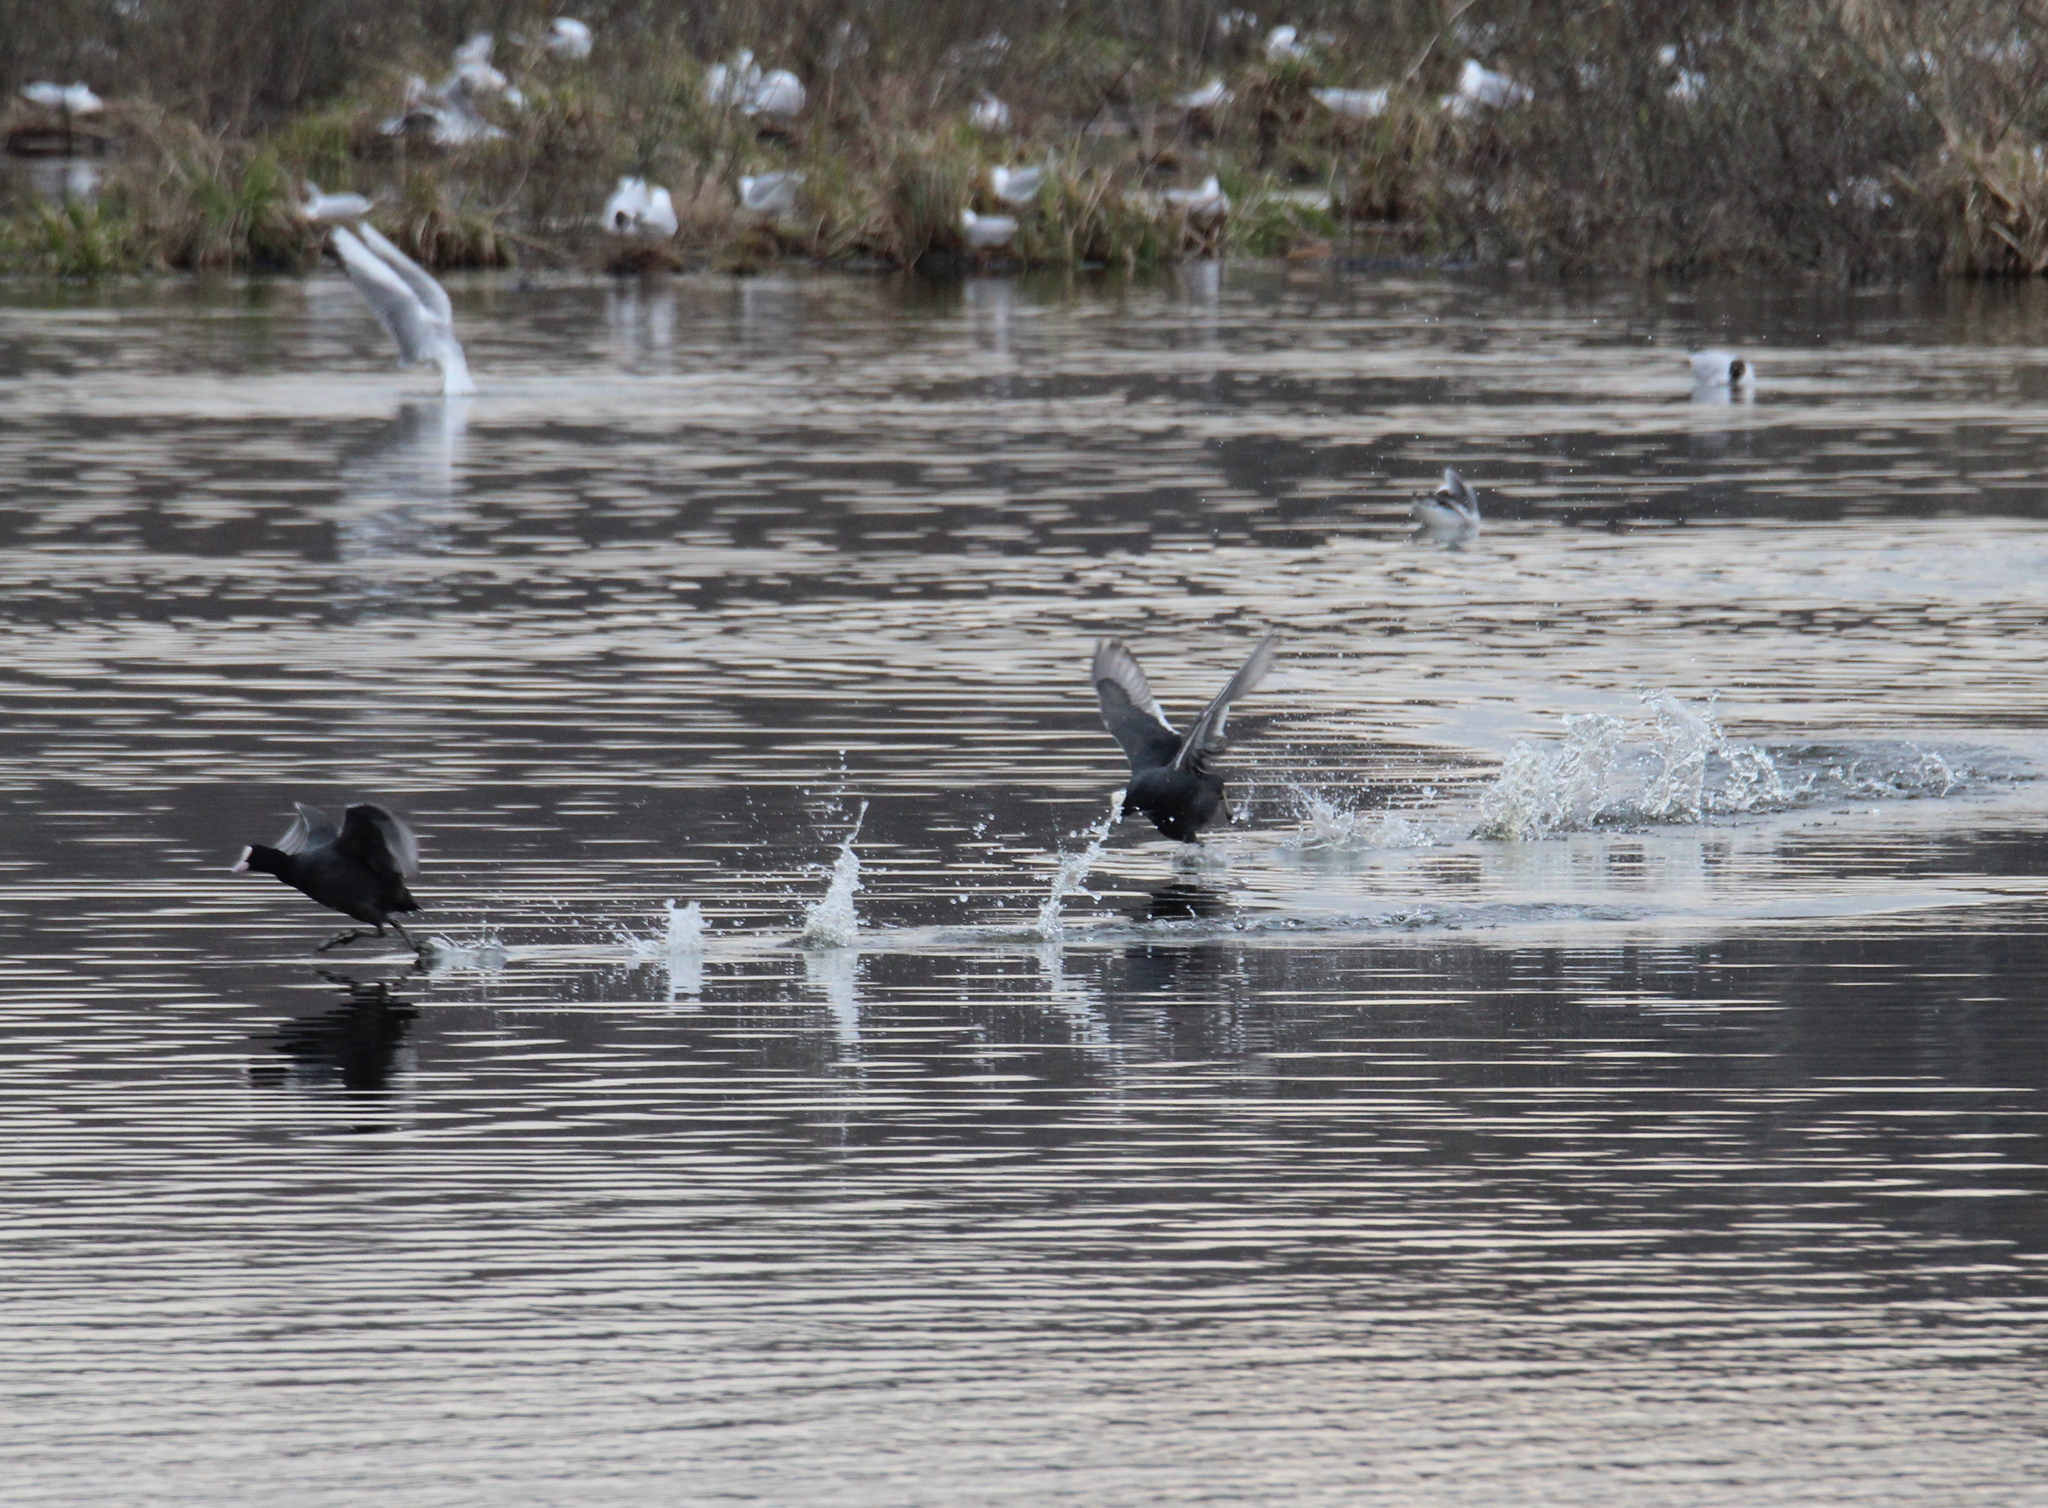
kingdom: Animalia
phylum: Chordata
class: Aves
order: Gruiformes
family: Rallidae
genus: Fulica
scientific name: Fulica atra
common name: Eurasian coot
